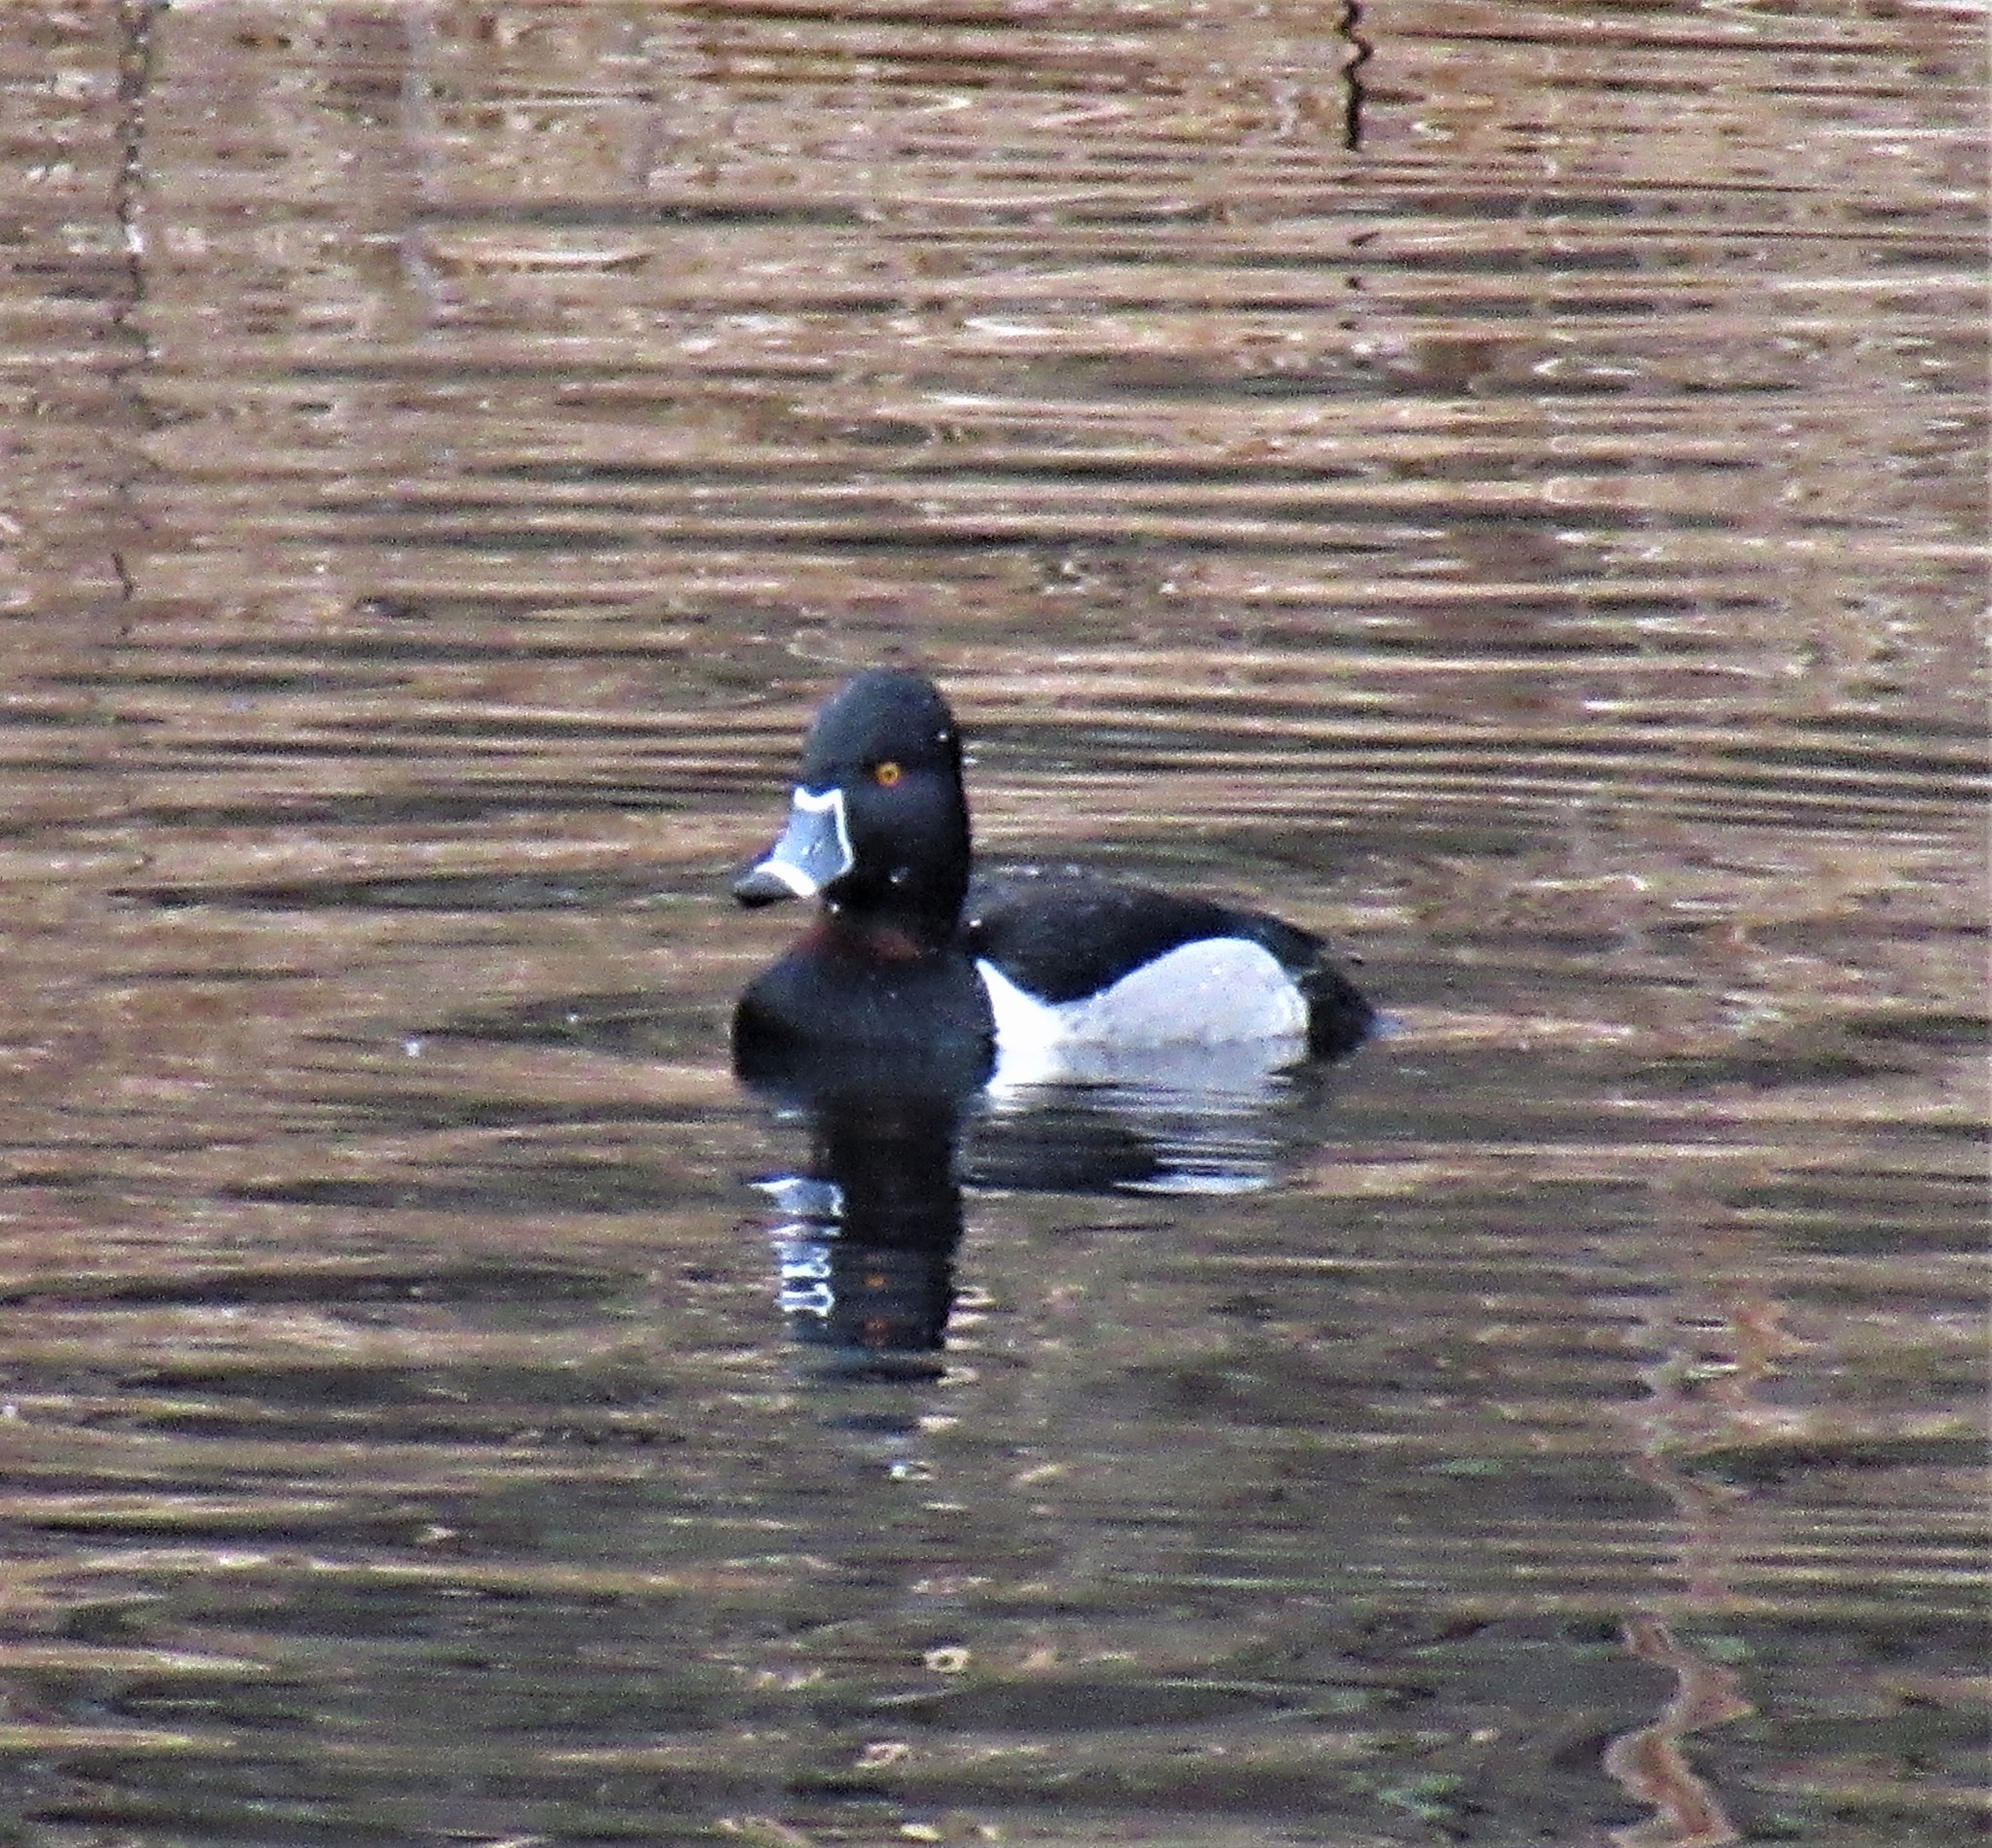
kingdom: Animalia
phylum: Chordata
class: Aves
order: Anseriformes
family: Anatidae
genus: Aythya
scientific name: Aythya collaris
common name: Ring-necked duck
